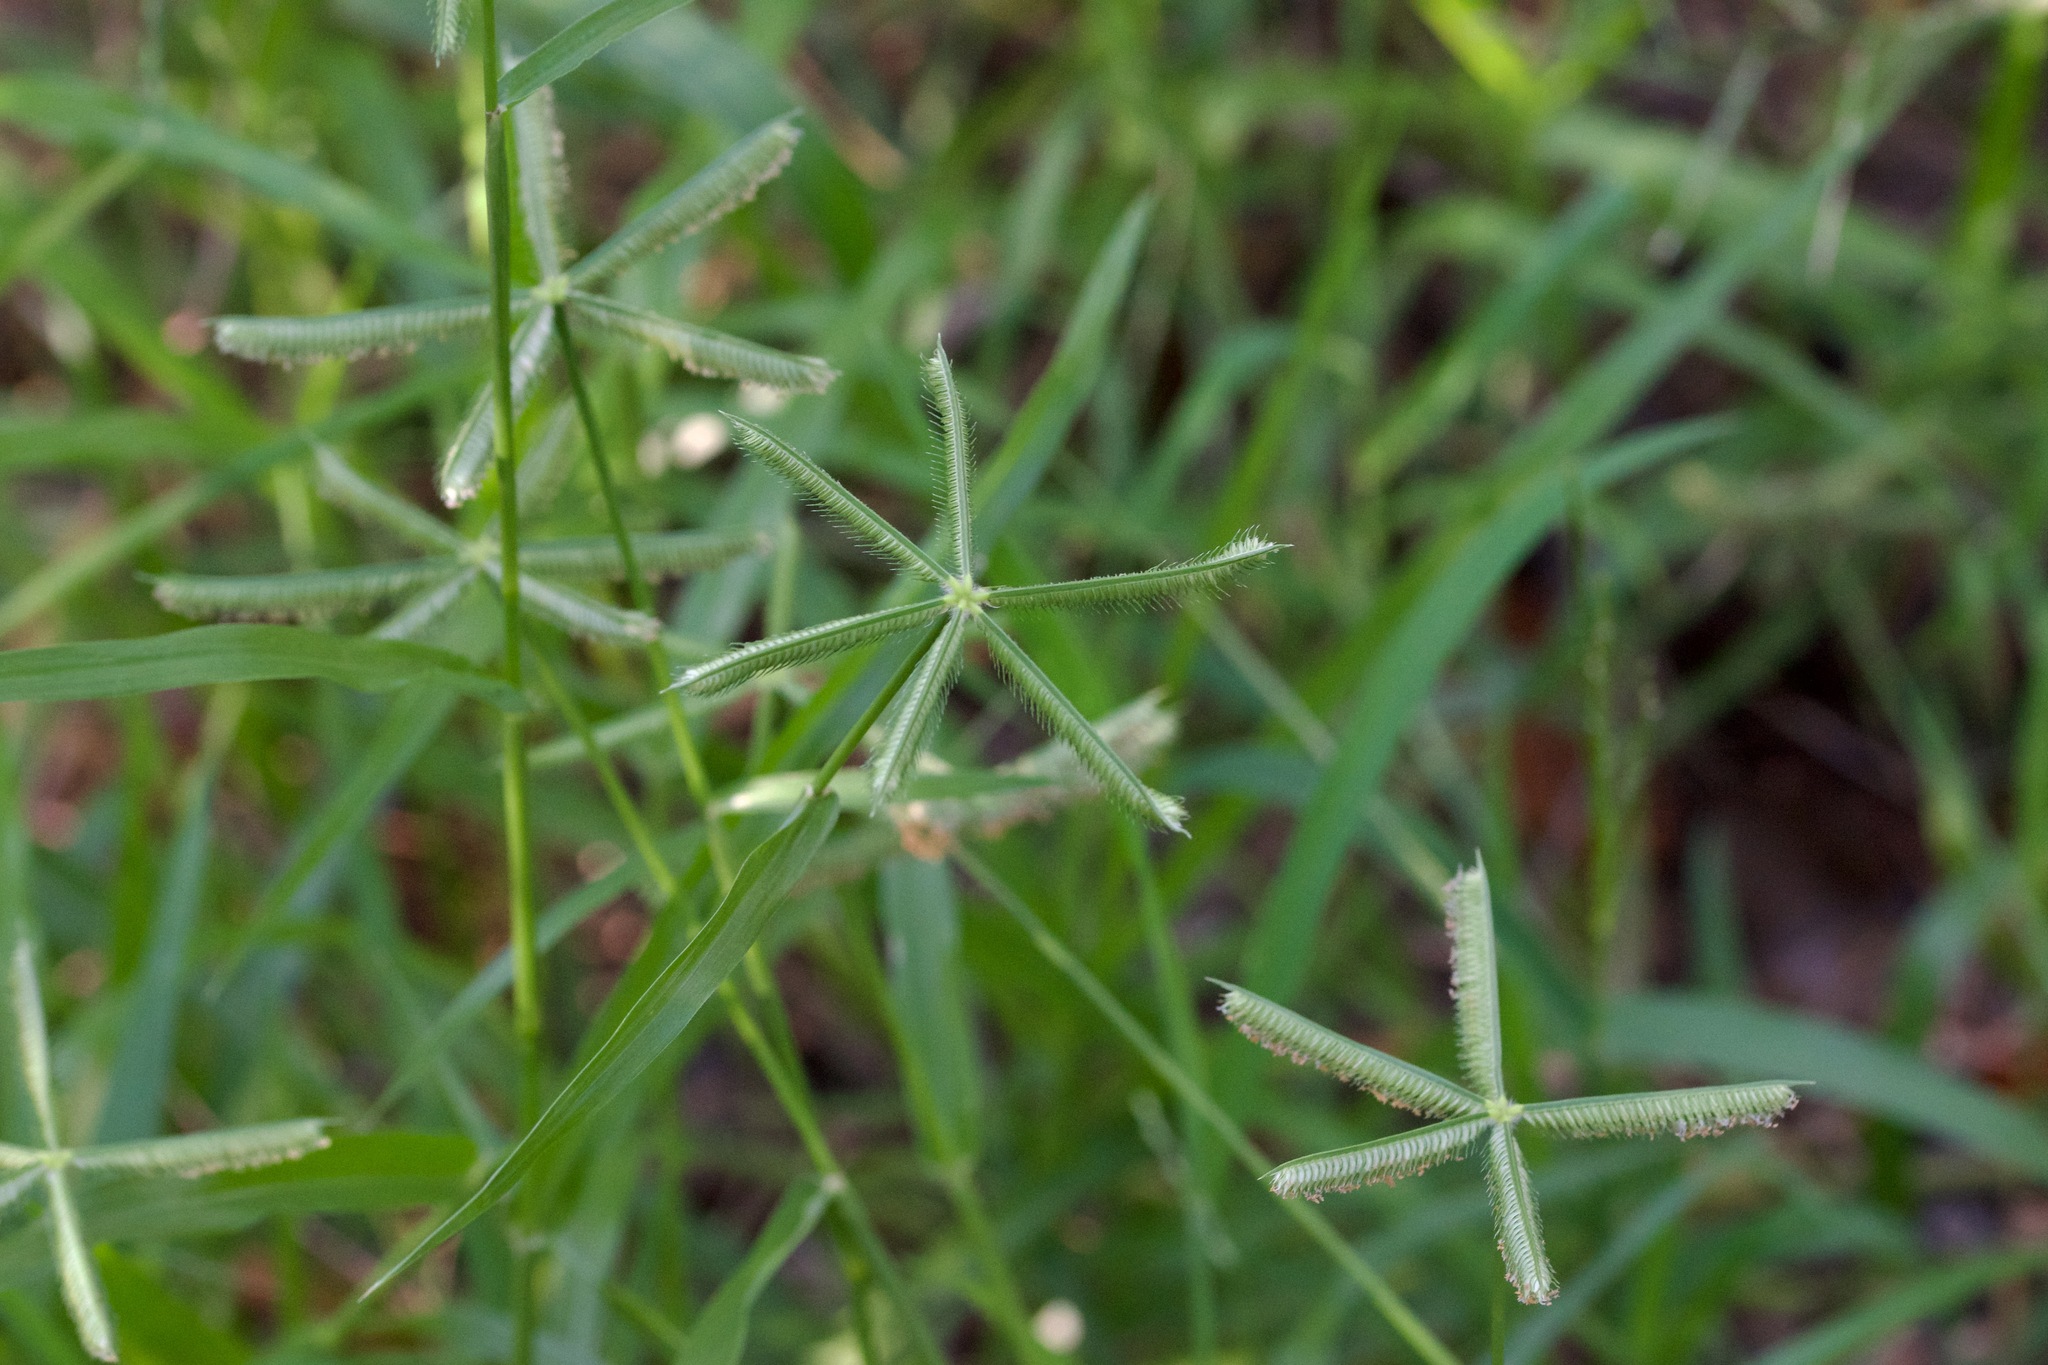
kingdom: Plantae
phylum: Tracheophyta
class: Liliopsida
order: Poales
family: Poaceae
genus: Dactyloctenium
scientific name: Dactyloctenium aegyptium
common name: Egyptian grass
